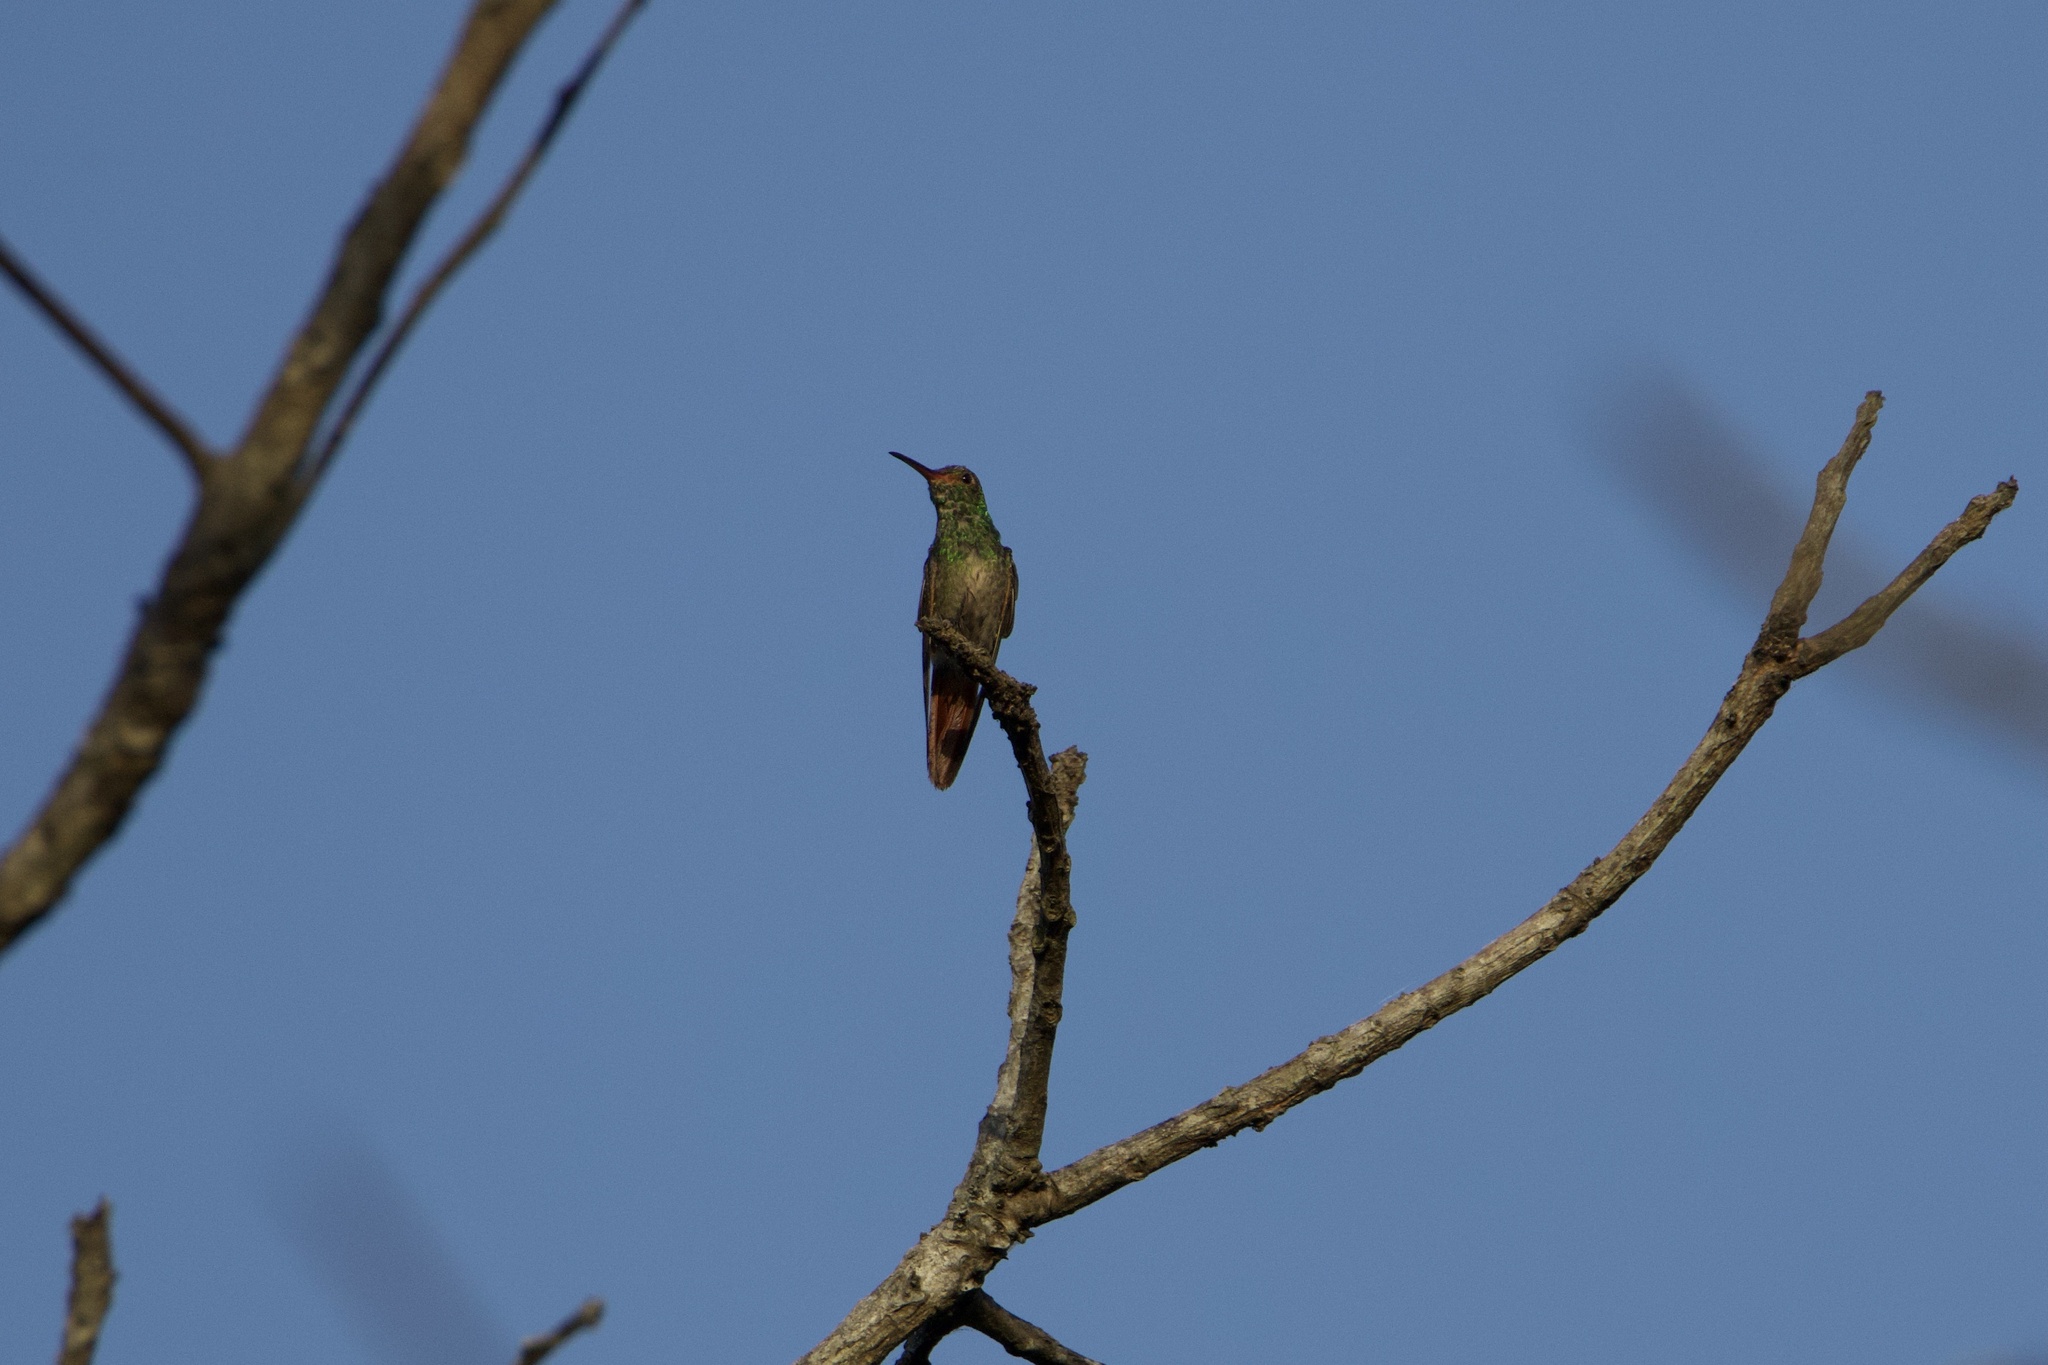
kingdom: Animalia
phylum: Chordata
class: Aves
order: Apodiformes
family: Trochilidae
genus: Amazilia
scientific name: Amazilia tzacatl
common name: Rufous-tailed hummingbird
